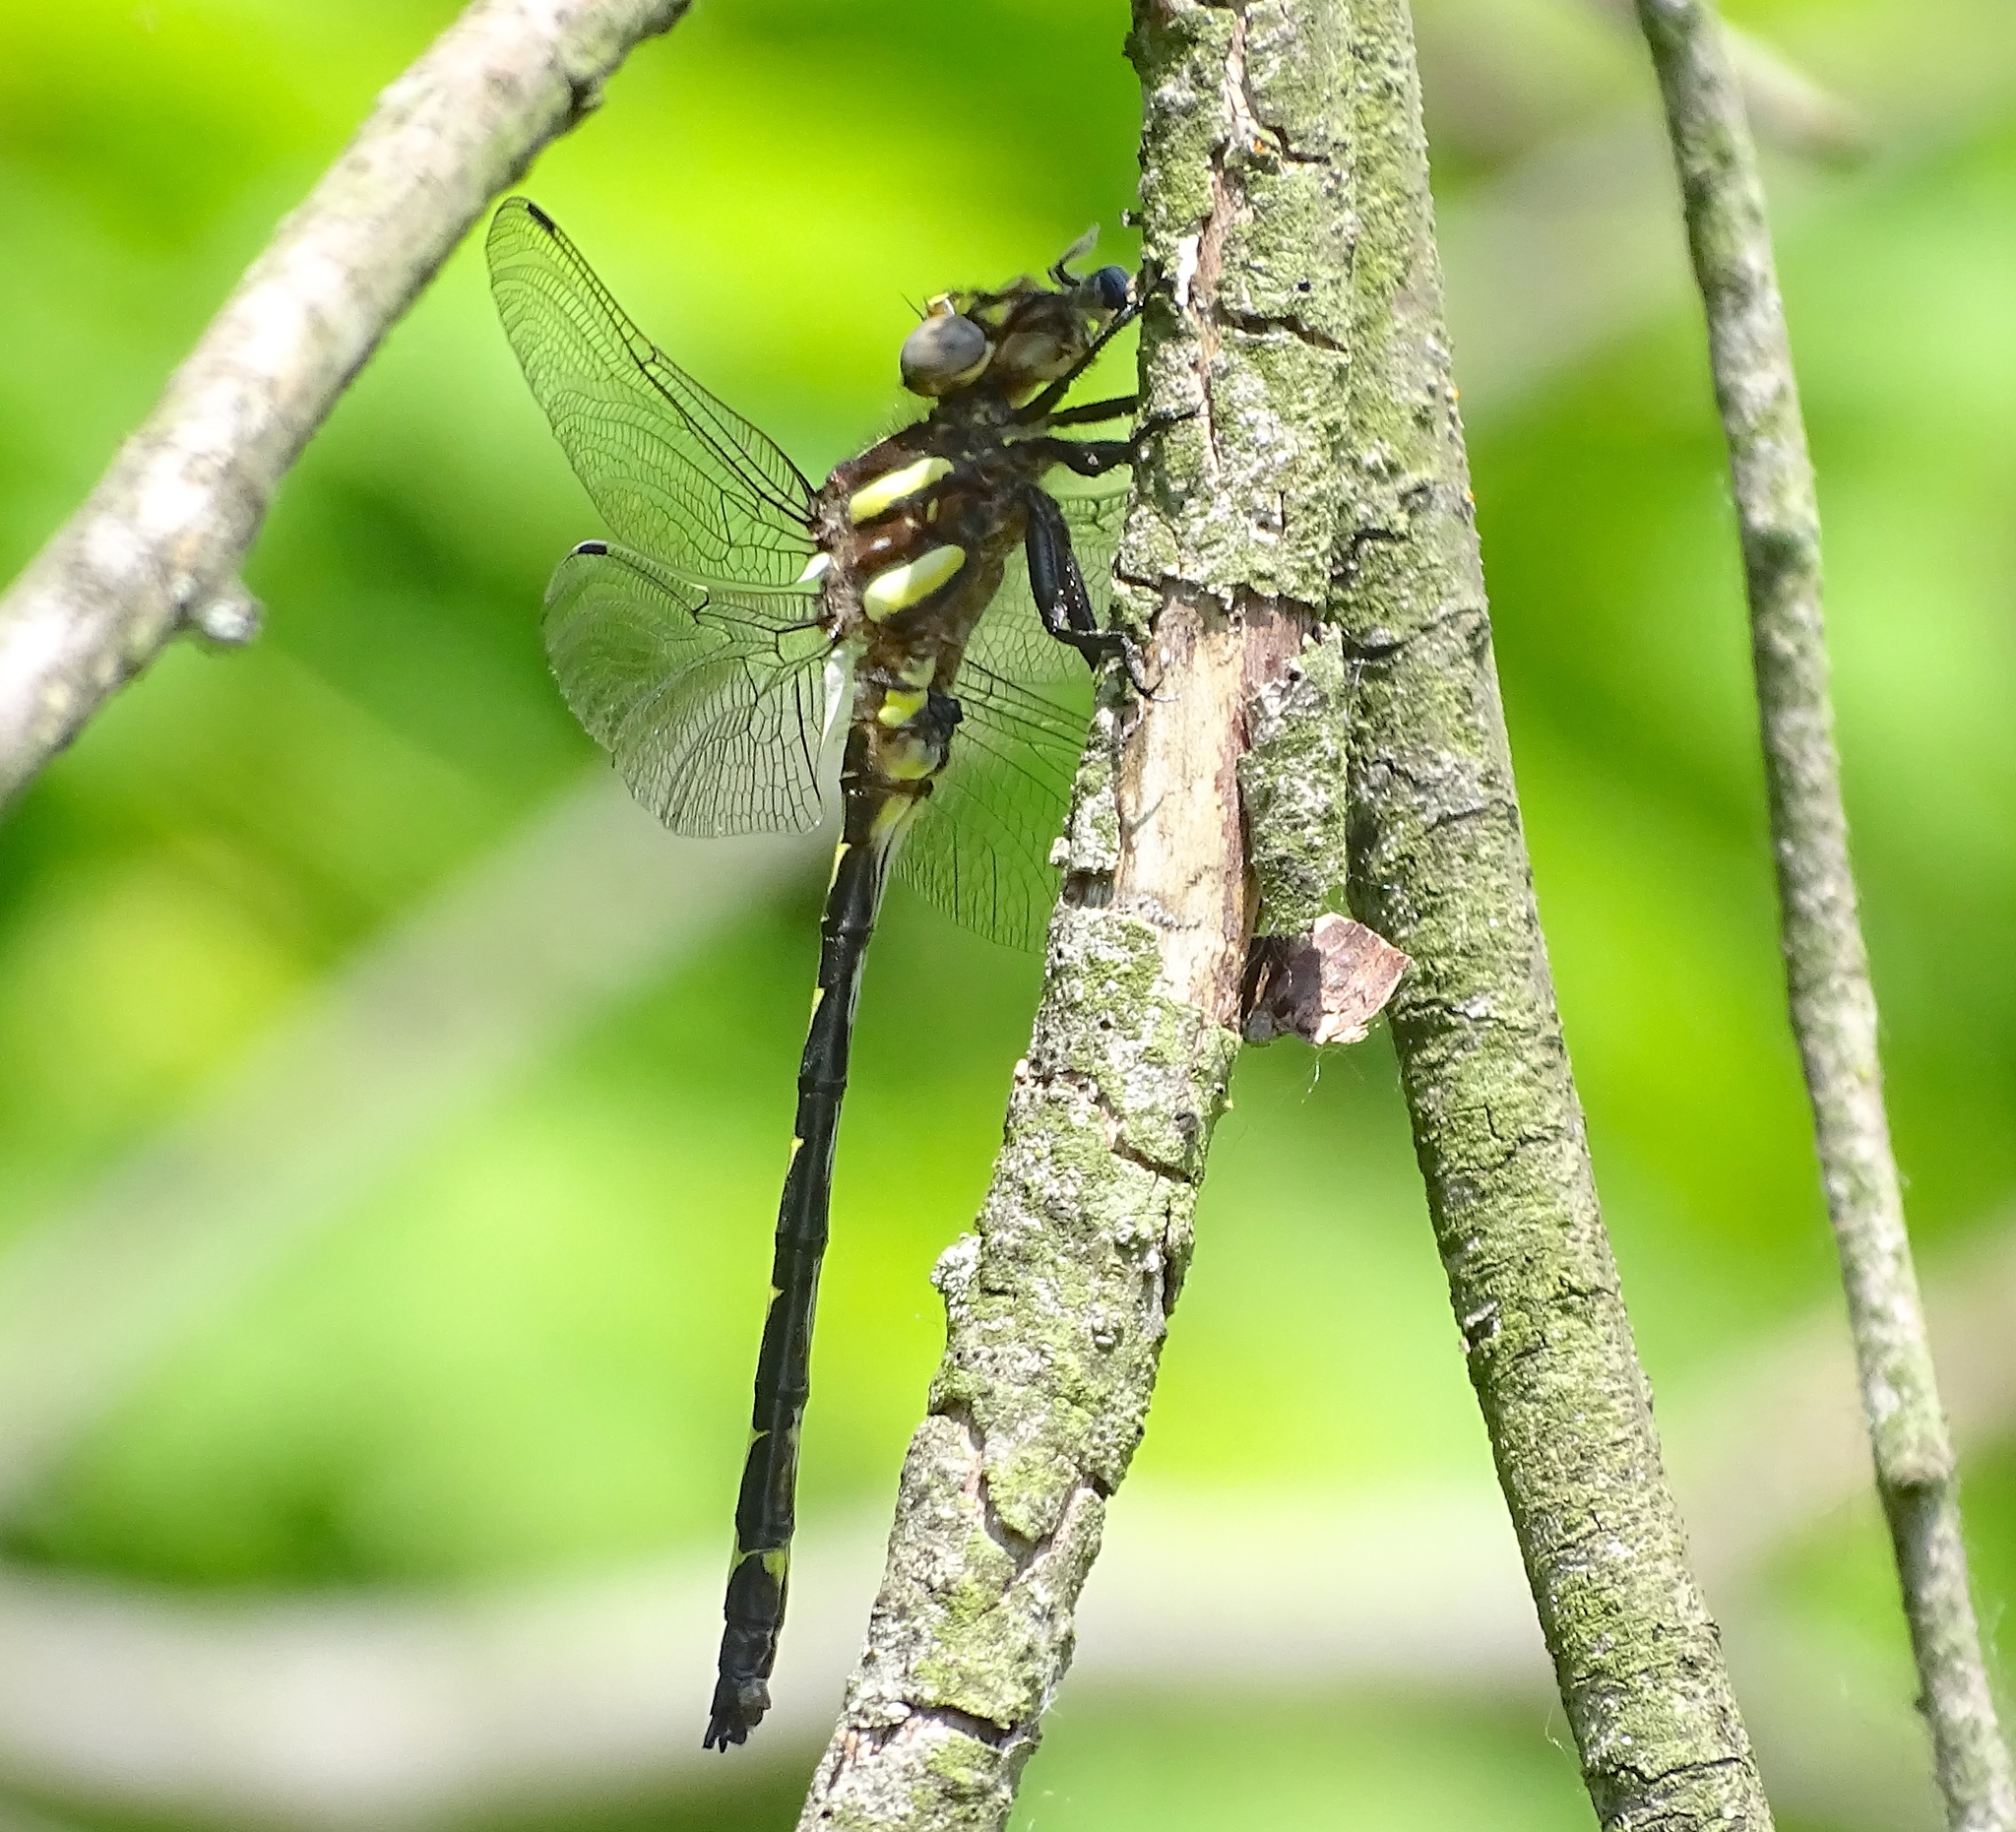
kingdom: Animalia
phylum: Arthropoda
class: Insecta
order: Odonata
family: Cordulegastridae
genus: Cordulegaster
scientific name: Cordulegaster obliqua
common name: Arrowhead spiketail
